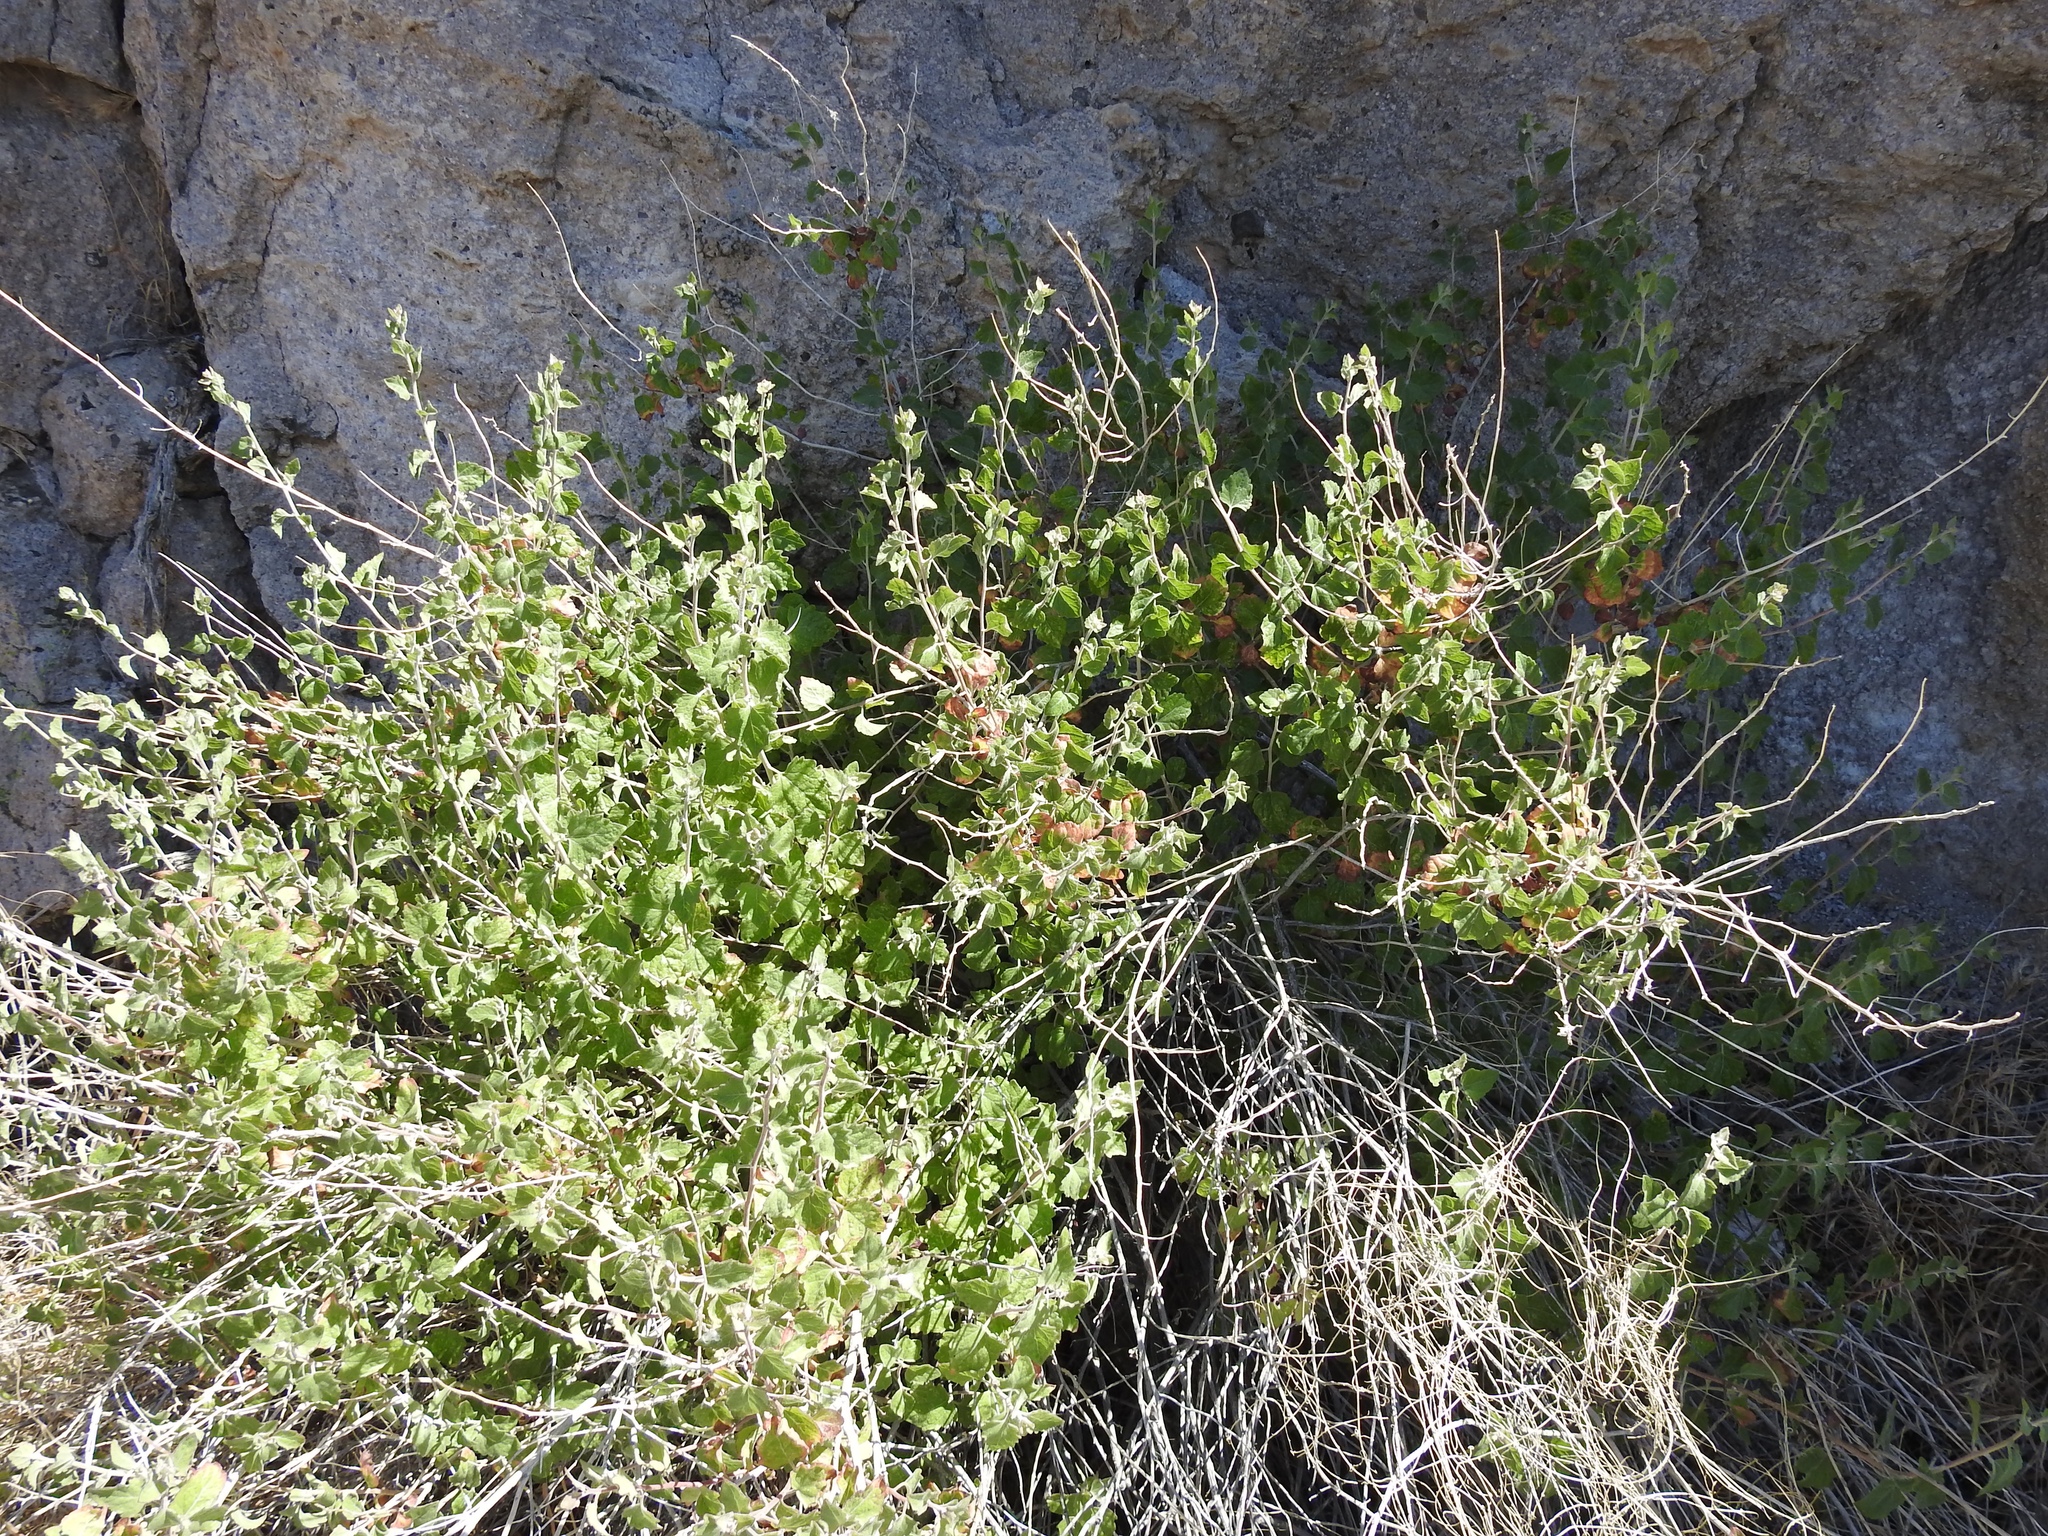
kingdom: Plantae
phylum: Tracheophyta
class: Magnoliopsida
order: Asterales
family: Asteraceae
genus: Brickellia
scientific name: Brickellia californica
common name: California brickellbush
